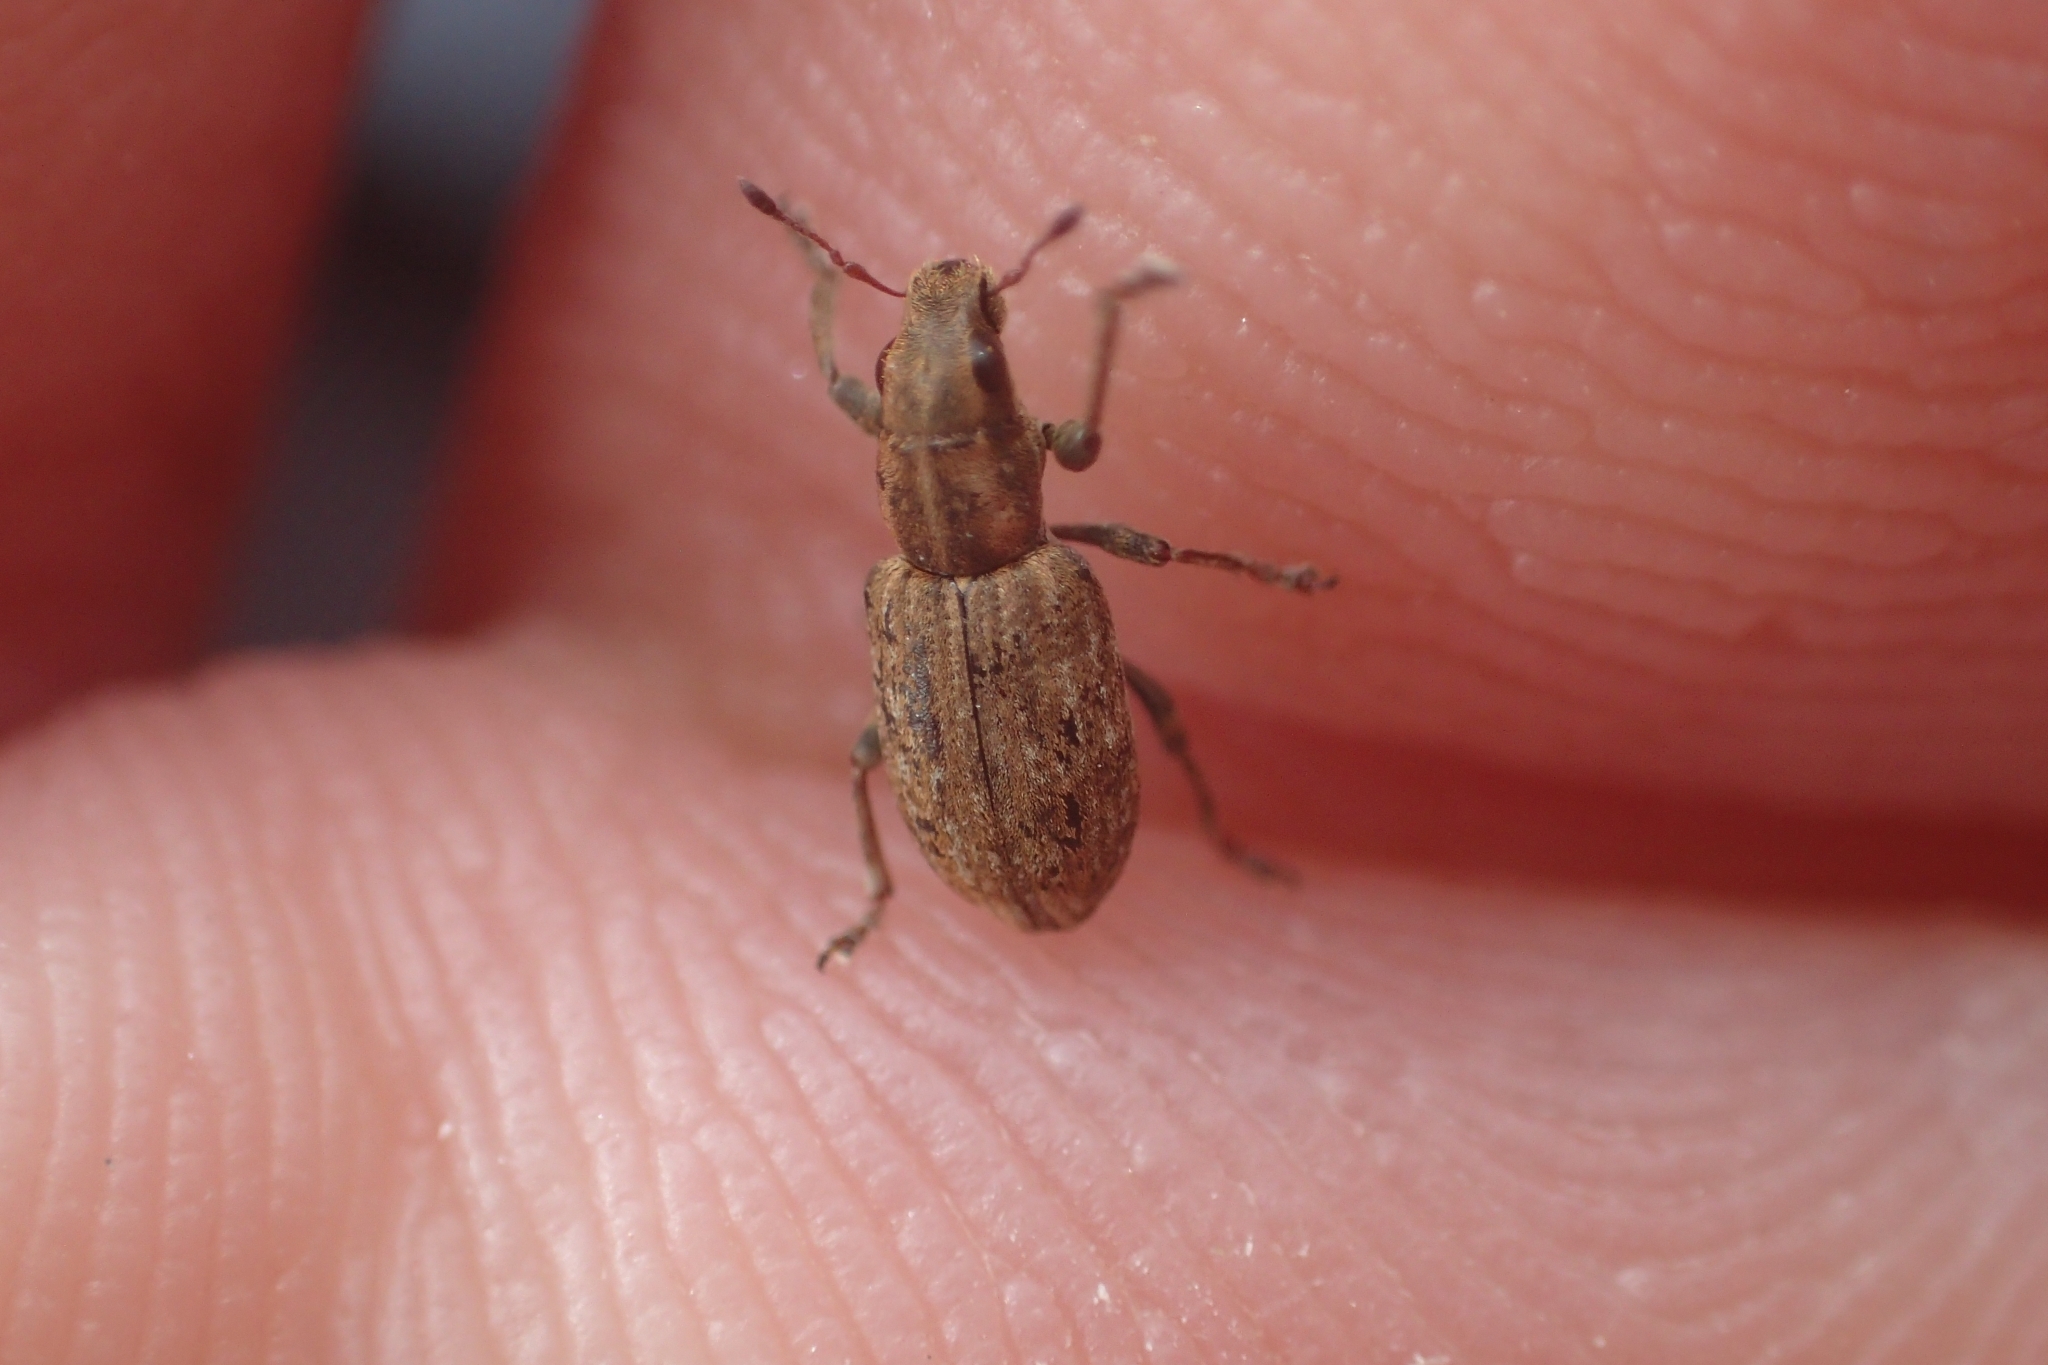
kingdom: Animalia
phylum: Arthropoda
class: Insecta
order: Coleoptera
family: Curculionidae
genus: Sitona
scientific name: Sitona obsoletus
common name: Weevil
